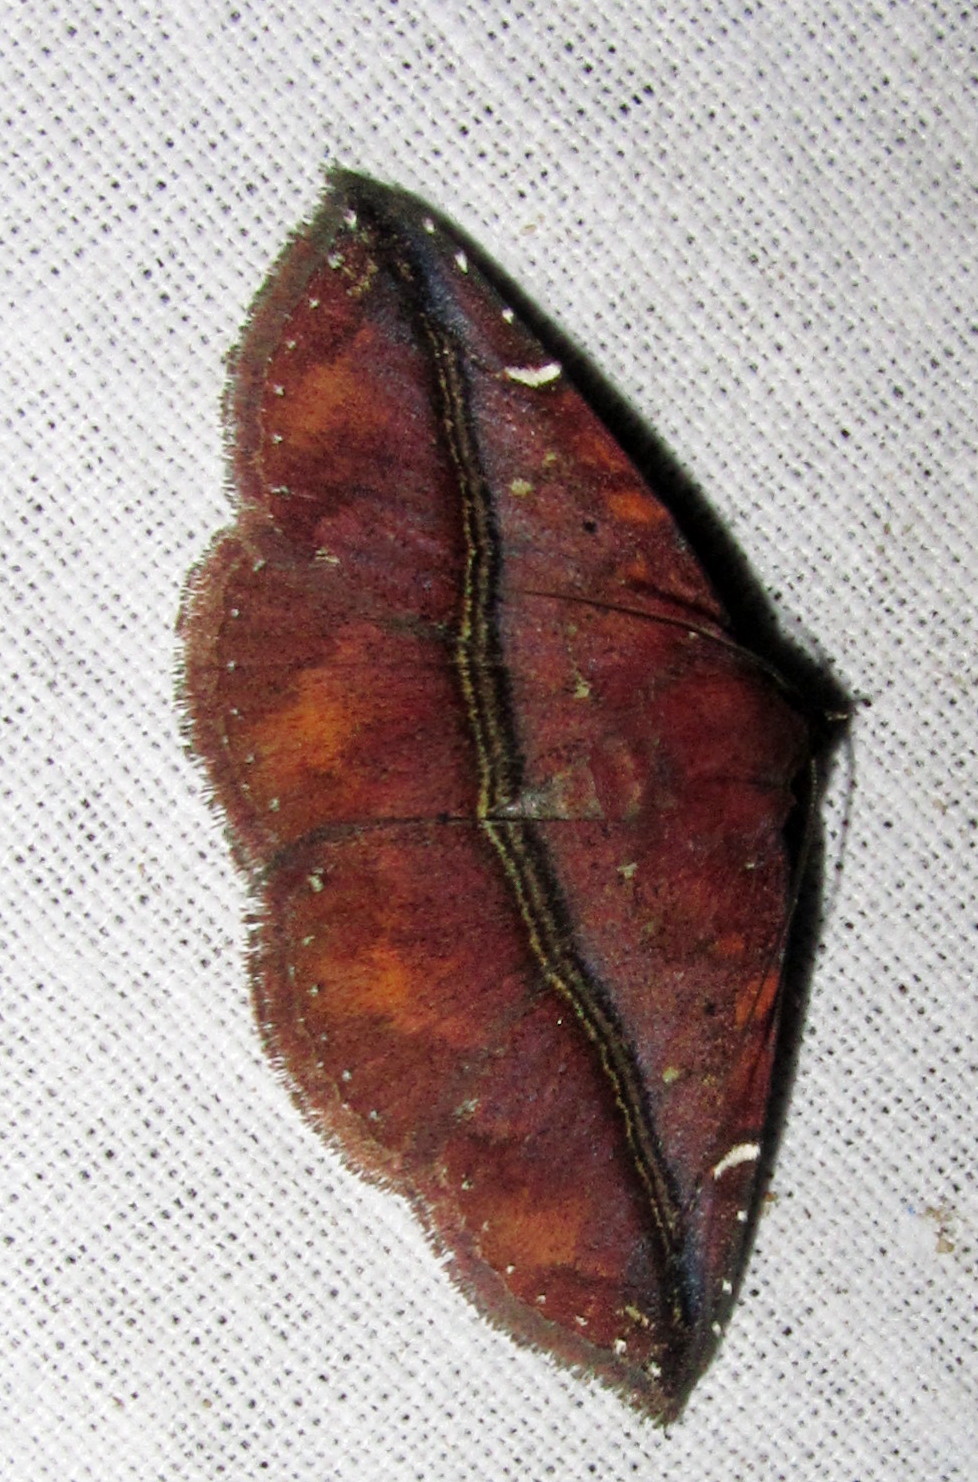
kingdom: Animalia
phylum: Arthropoda
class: Insecta
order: Lepidoptera
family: Erebidae
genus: Condate
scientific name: Condate purpurea
